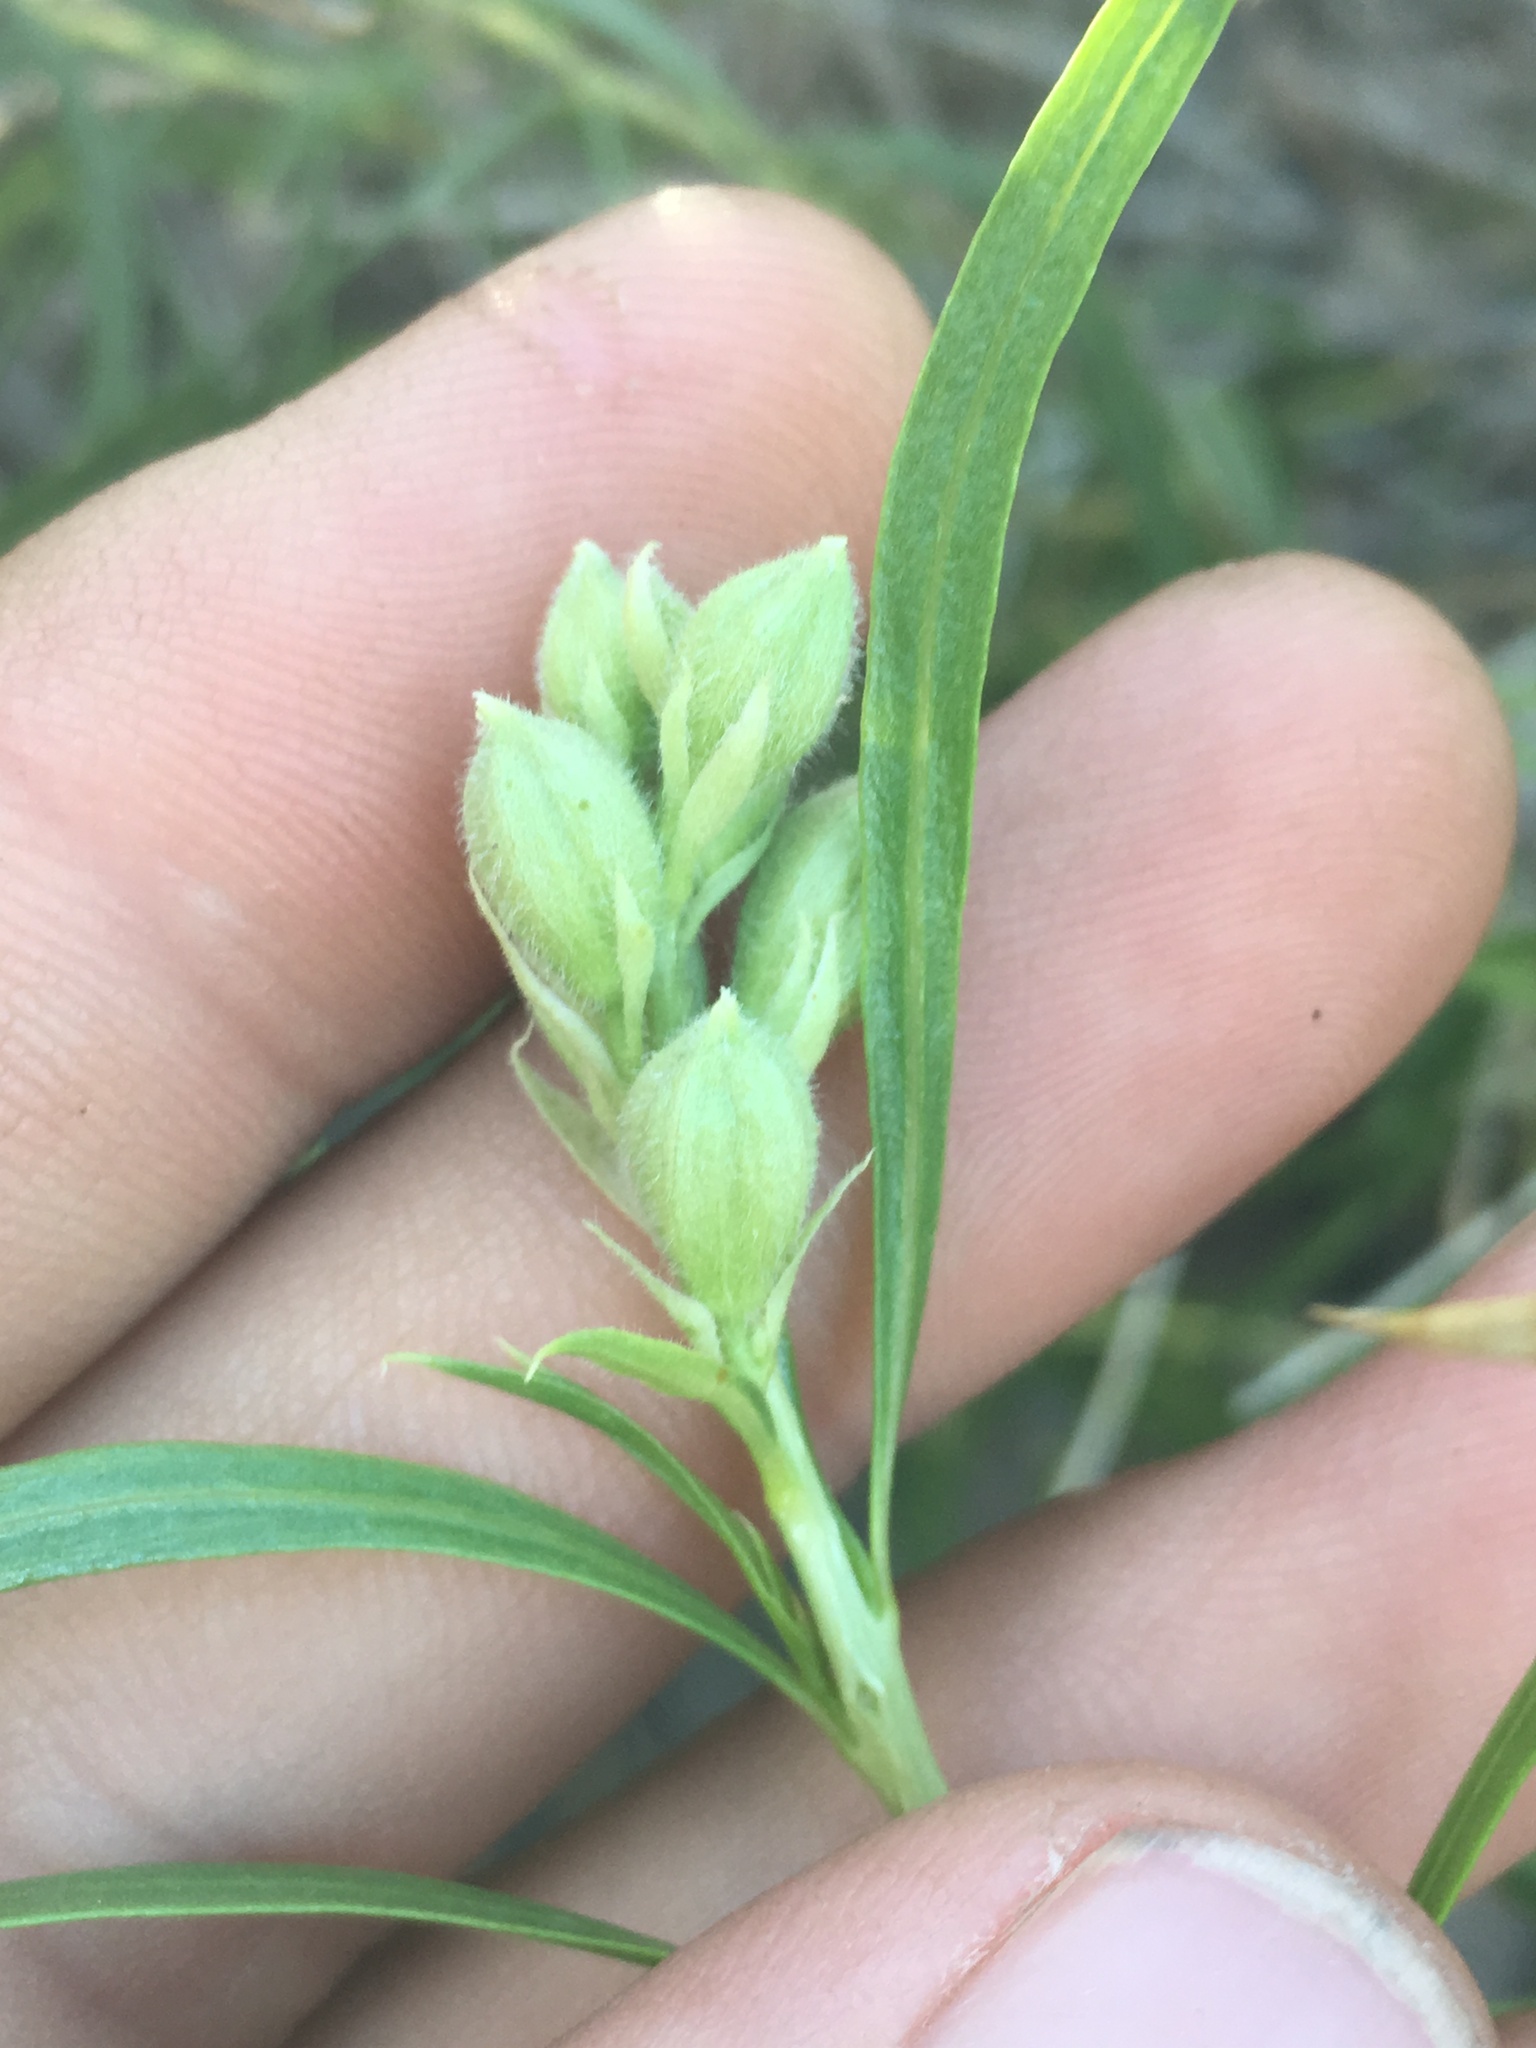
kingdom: Plantae
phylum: Tracheophyta
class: Magnoliopsida
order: Lamiales
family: Bignoniaceae
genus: Chilopsis
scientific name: Chilopsis linearis
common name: Desert-willow
